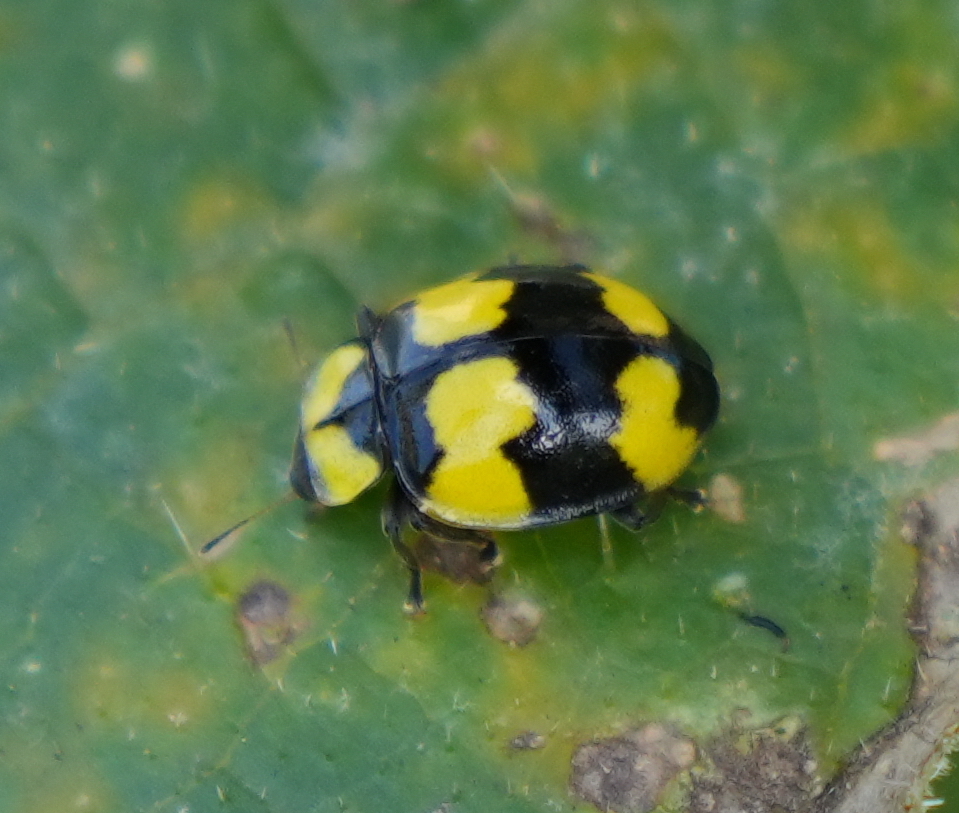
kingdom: Animalia
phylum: Arthropoda
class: Insecta
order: Coleoptera
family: Coccinellidae
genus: Illeis
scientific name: Illeis galbula
